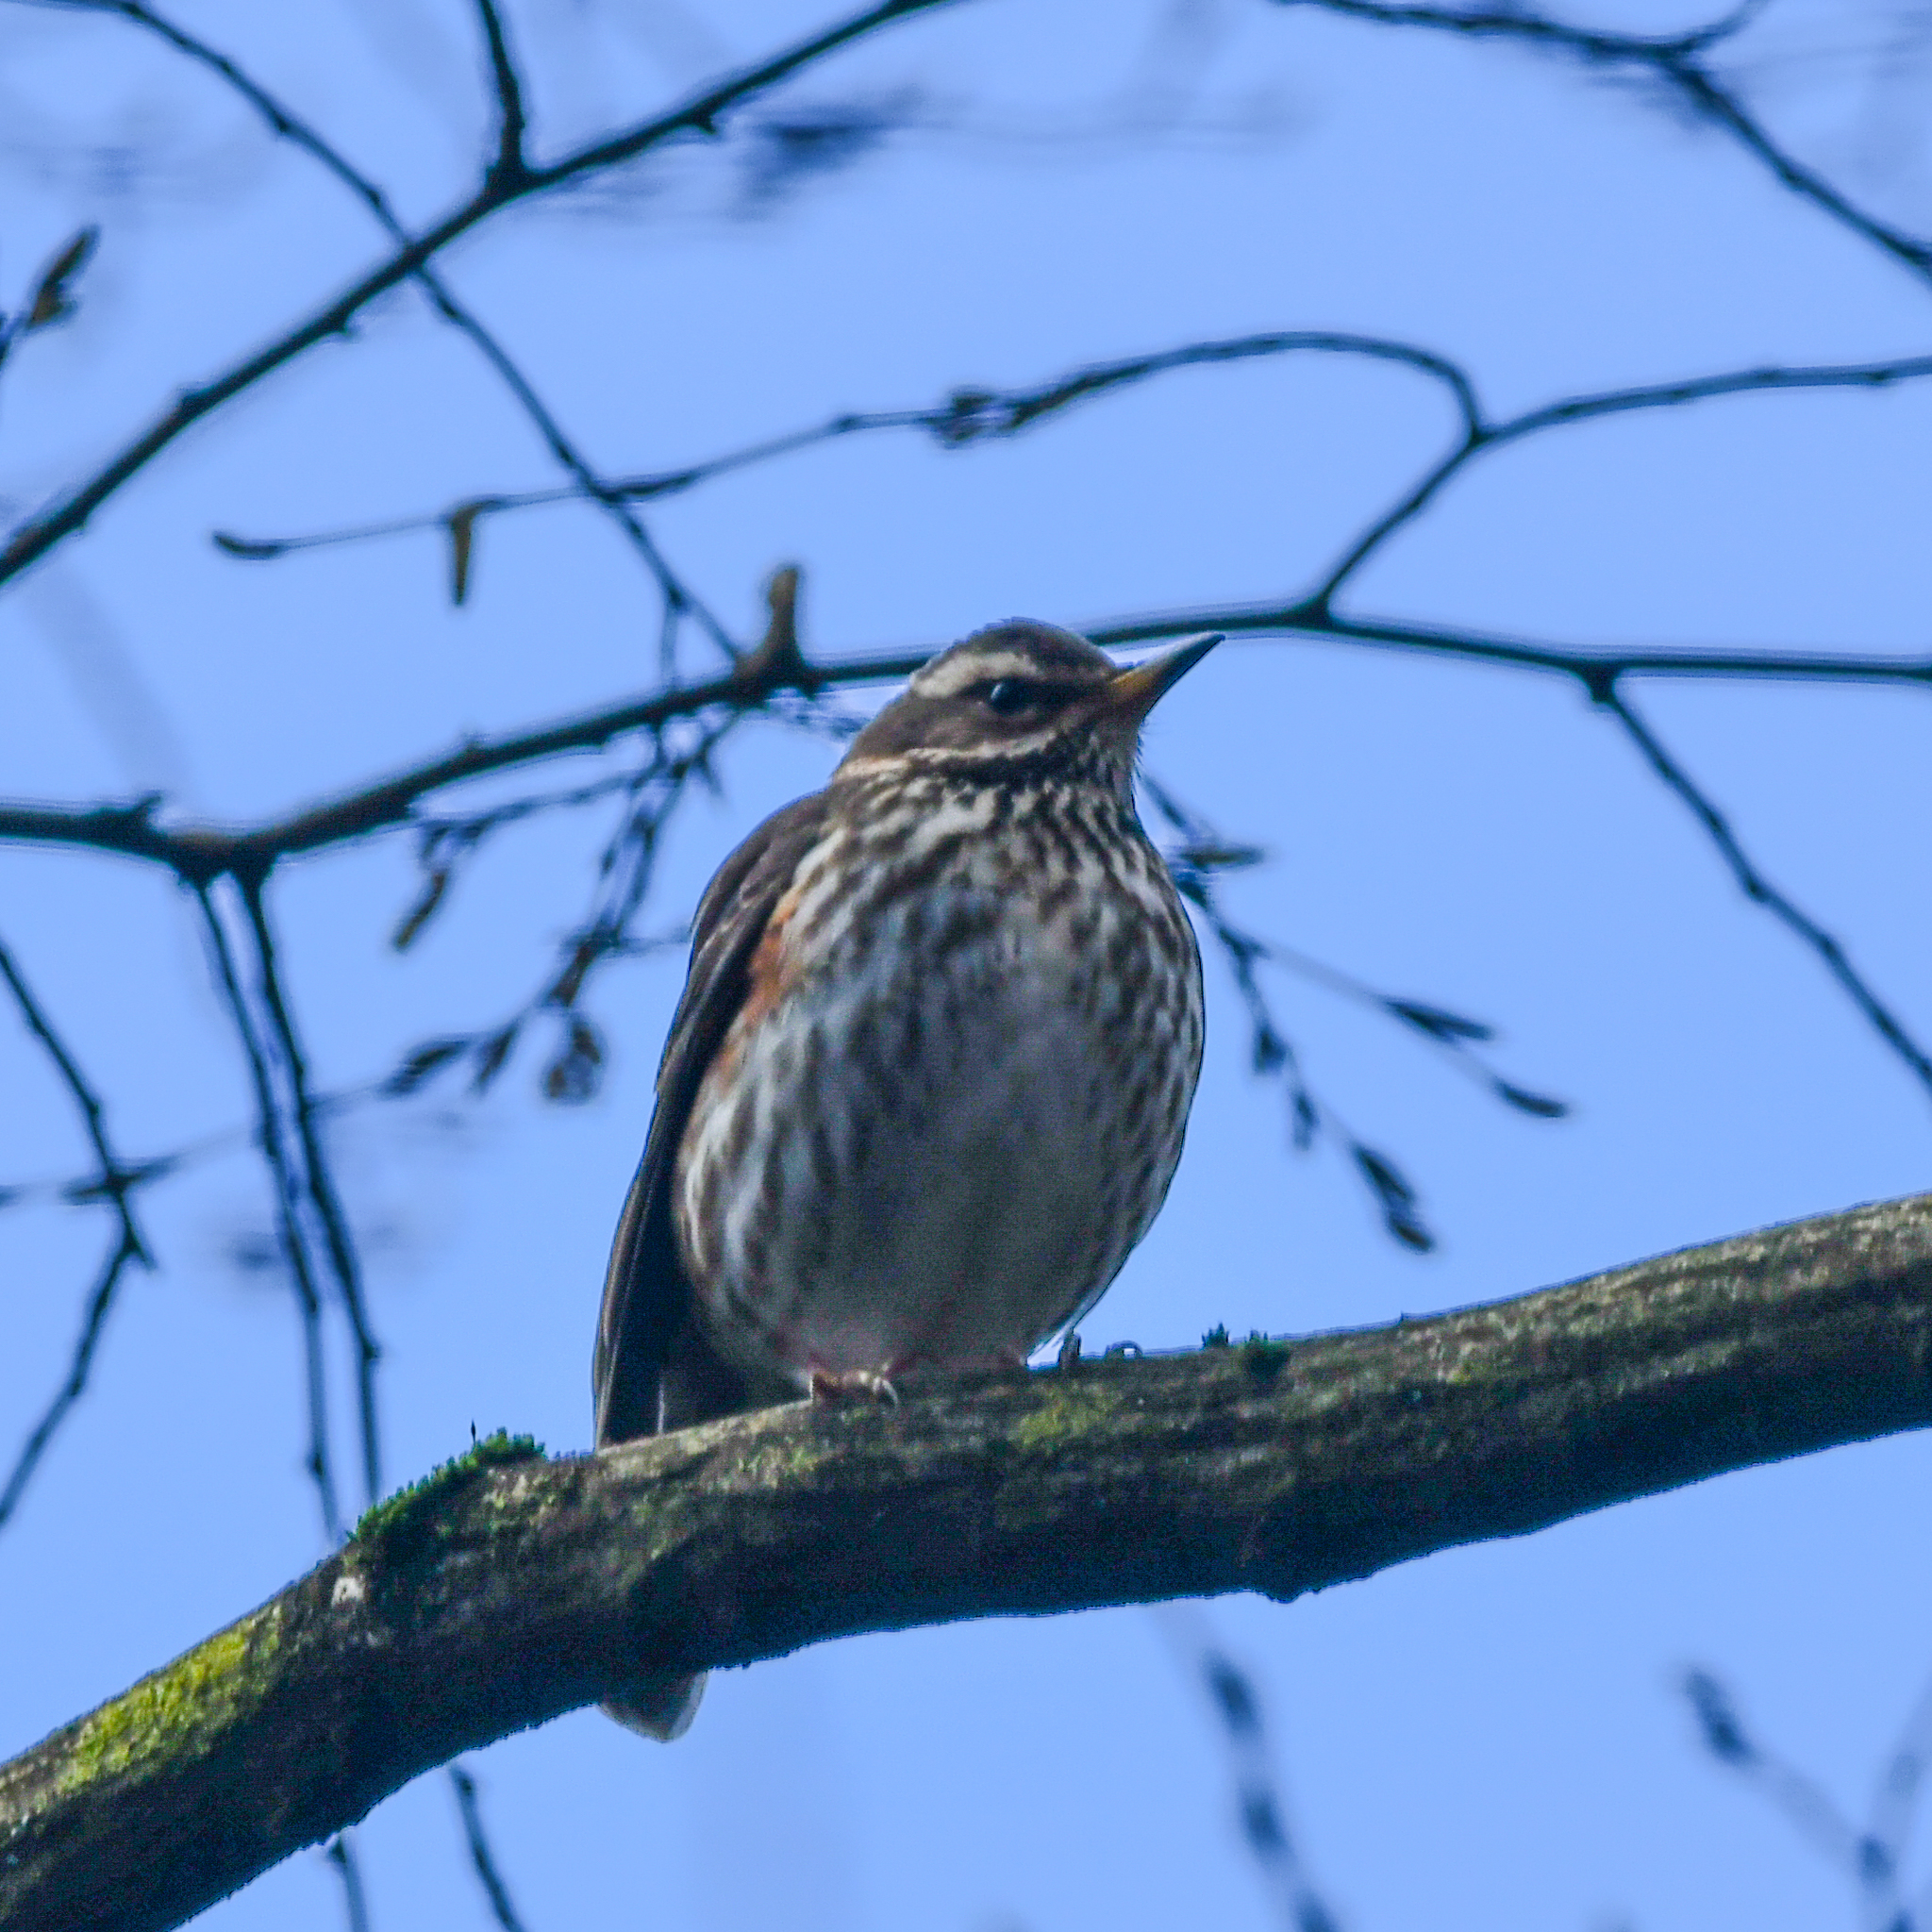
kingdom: Animalia
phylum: Chordata
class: Aves
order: Passeriformes
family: Turdidae
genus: Turdus
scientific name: Turdus iliacus
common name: Redwing
